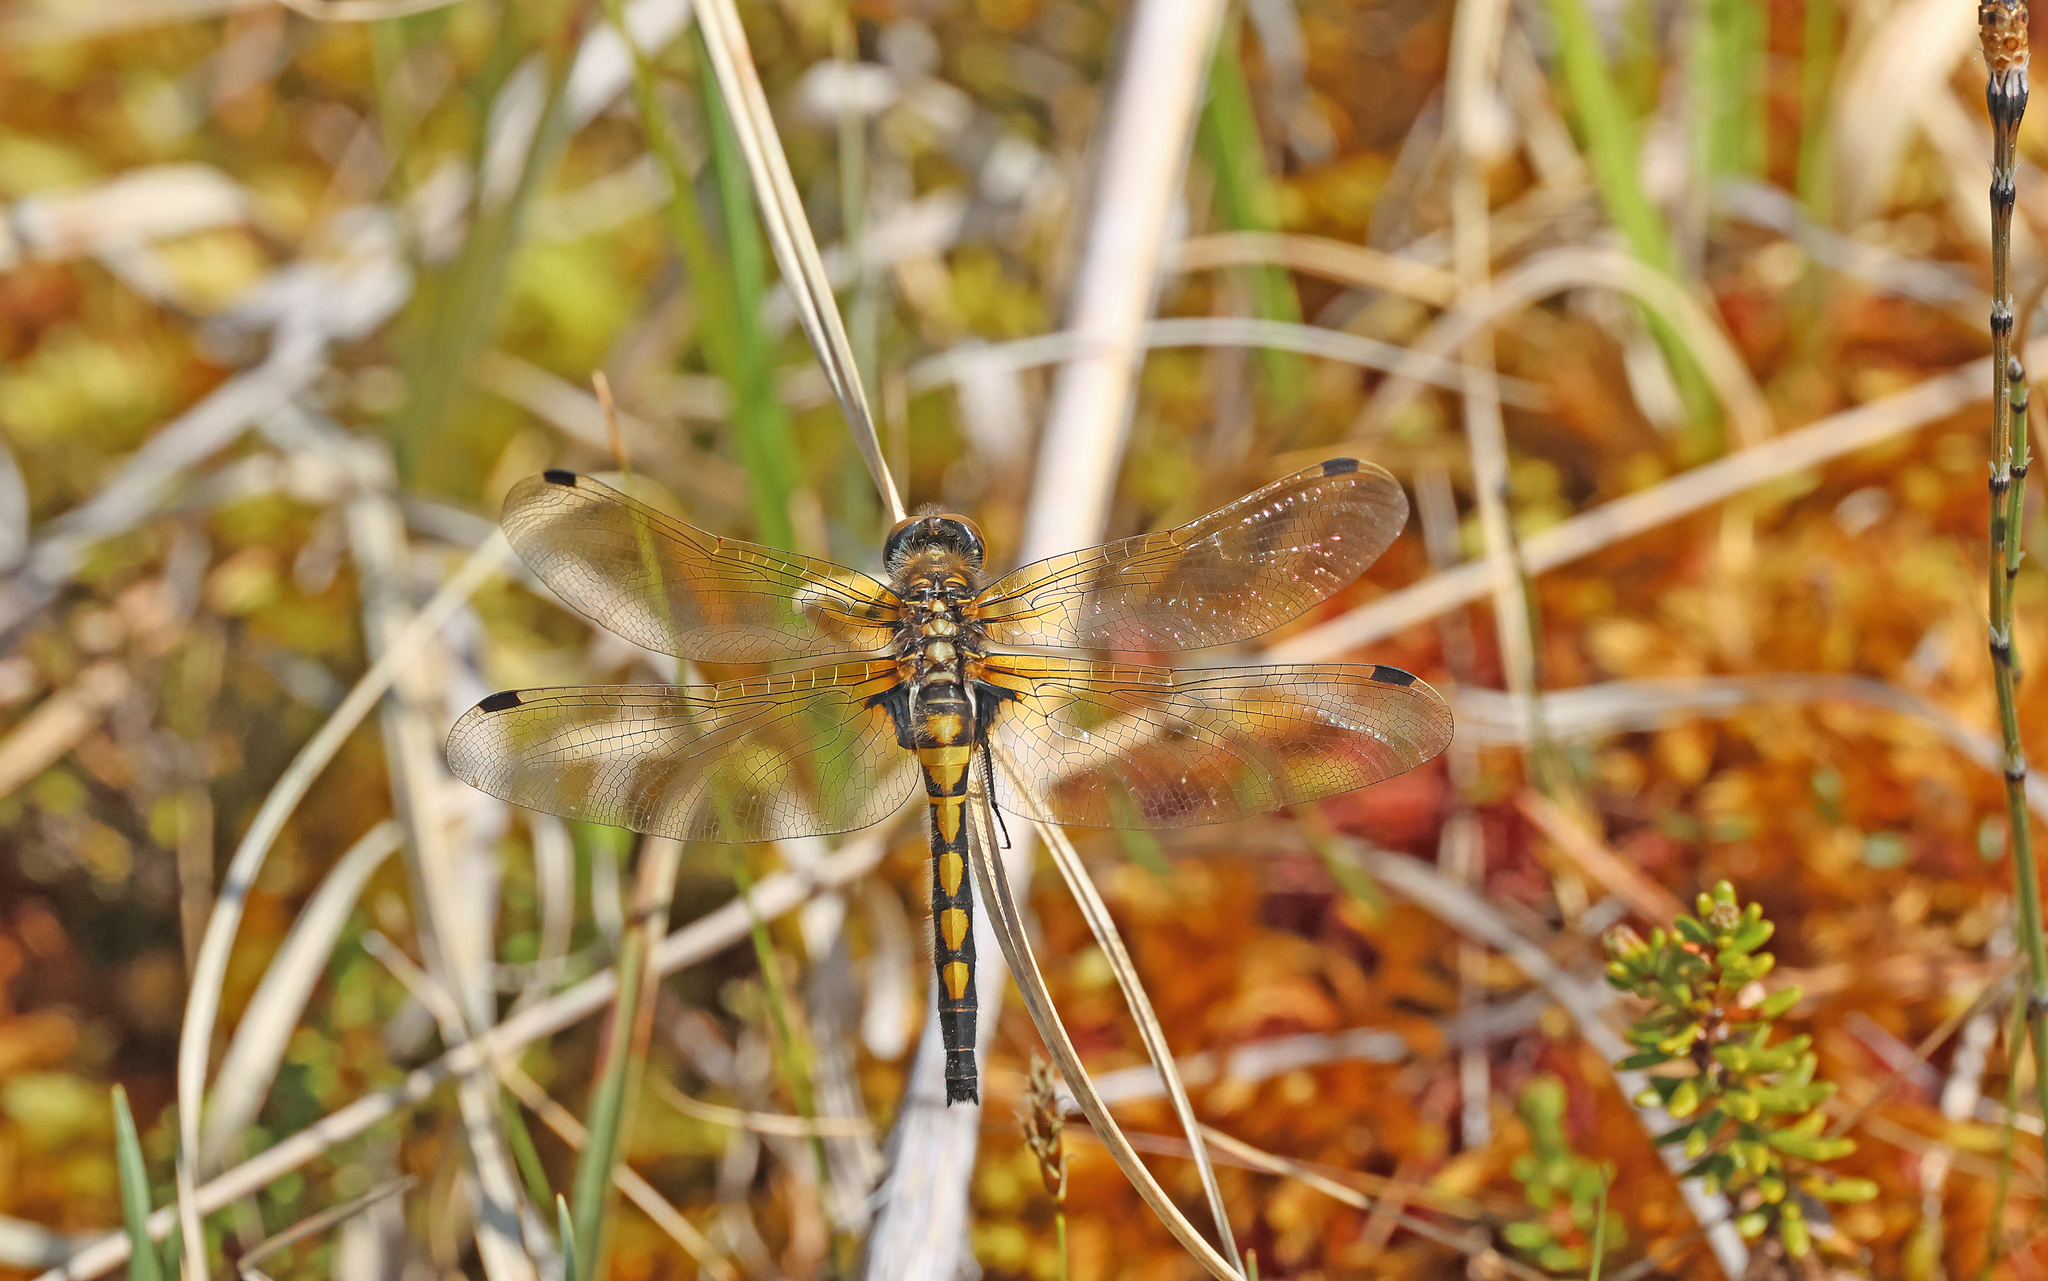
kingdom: Animalia
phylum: Arthropoda
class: Insecta
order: Odonata
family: Libellulidae
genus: Leucorrhinia
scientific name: Leucorrhinia rubicunda
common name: Ruby whiteface
